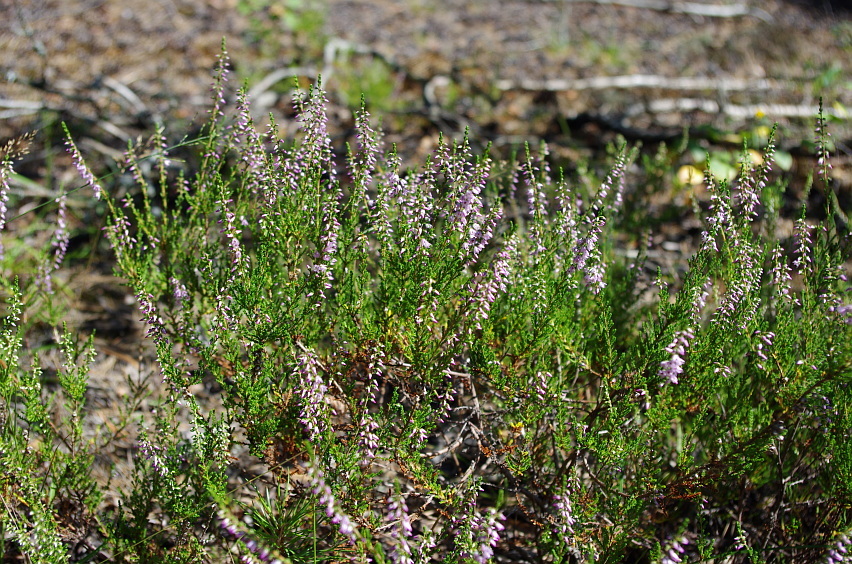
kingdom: Plantae
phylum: Tracheophyta
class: Magnoliopsida
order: Ericales
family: Ericaceae
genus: Calluna
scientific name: Calluna vulgaris
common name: Heather
